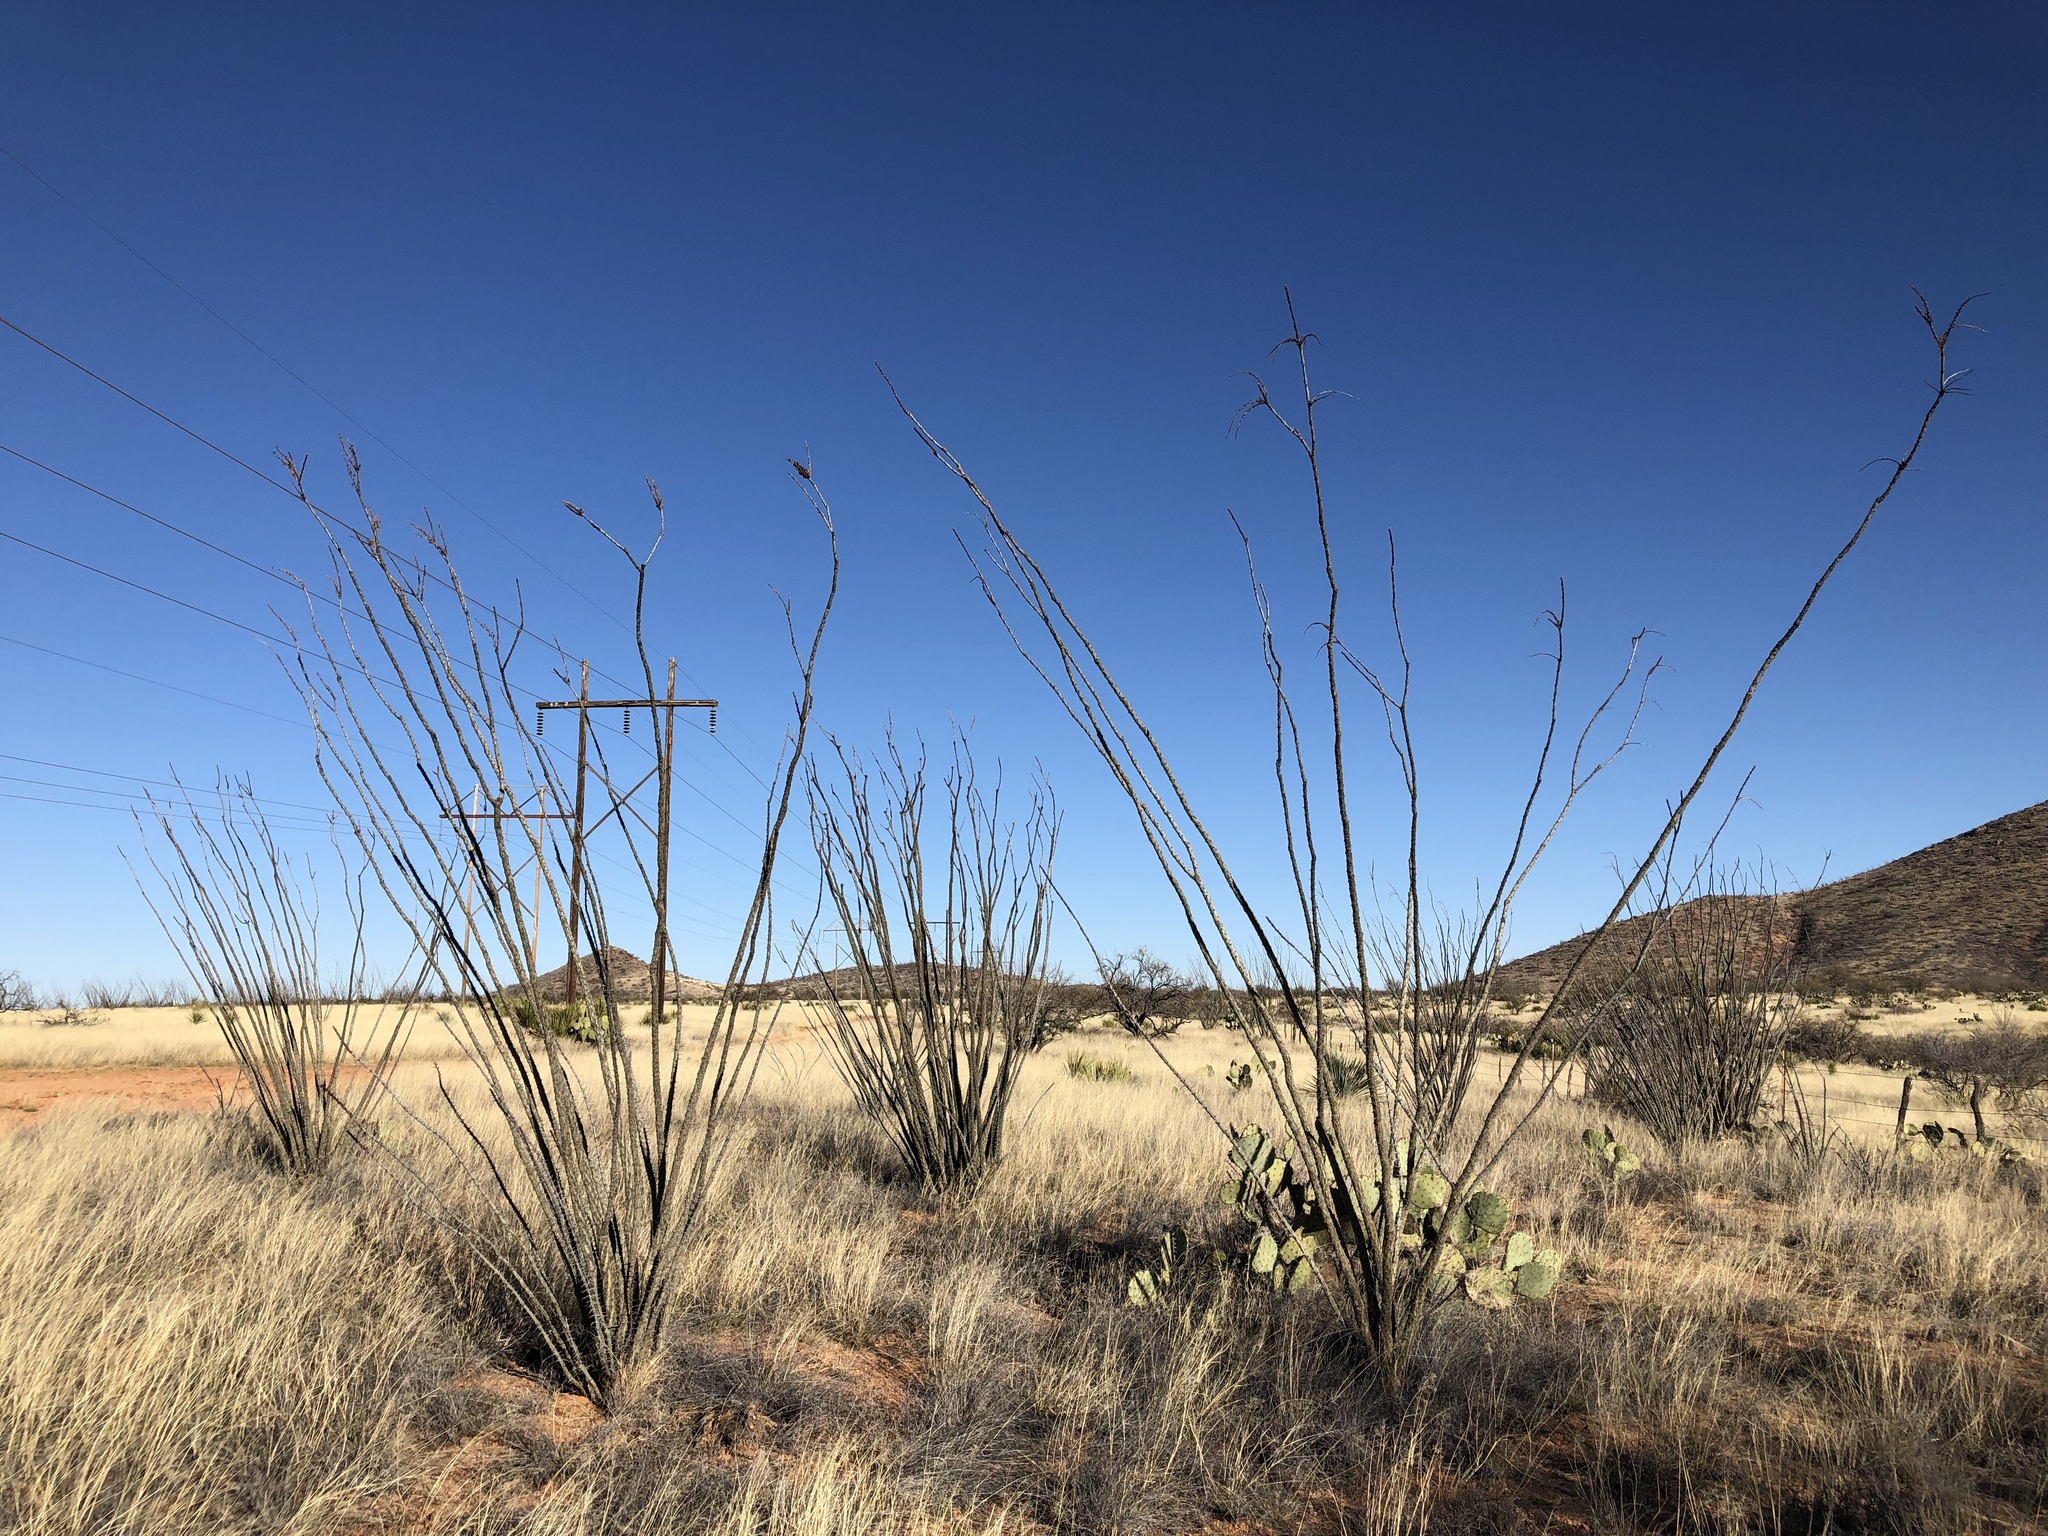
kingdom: Plantae
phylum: Tracheophyta
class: Magnoliopsida
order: Ericales
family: Fouquieriaceae
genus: Fouquieria
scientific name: Fouquieria splendens
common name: Vine-cactus
